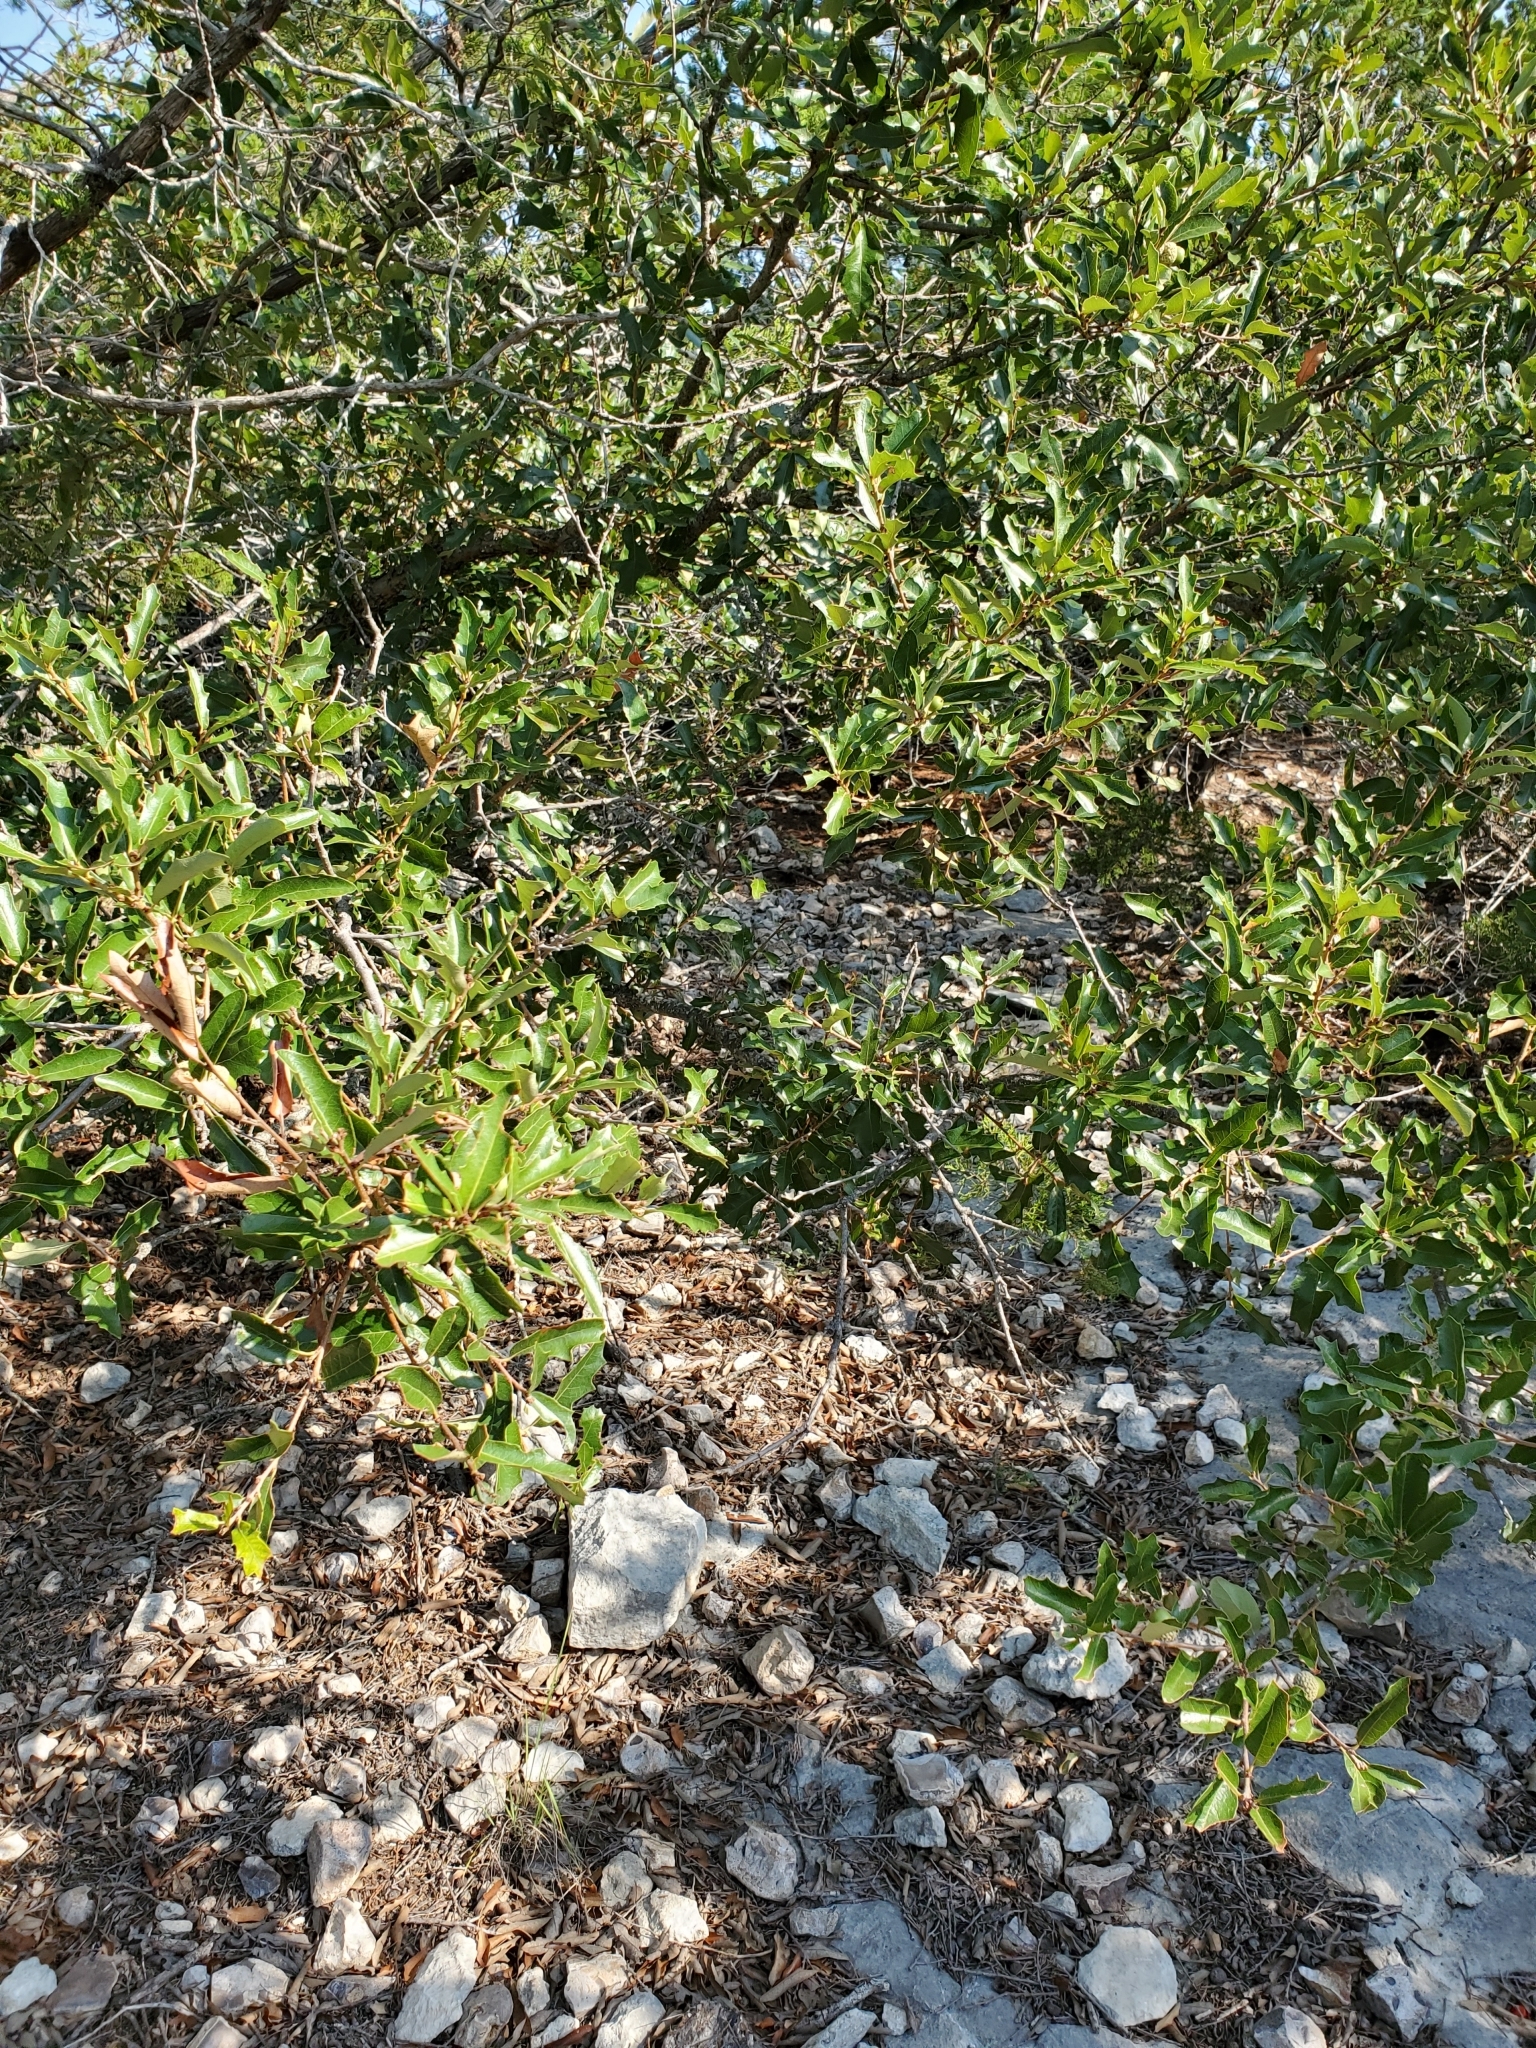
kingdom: Plantae
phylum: Tracheophyta
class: Magnoliopsida
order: Fagales
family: Fagaceae
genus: Quercus
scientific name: Quercus sinuata
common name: Durand oak
